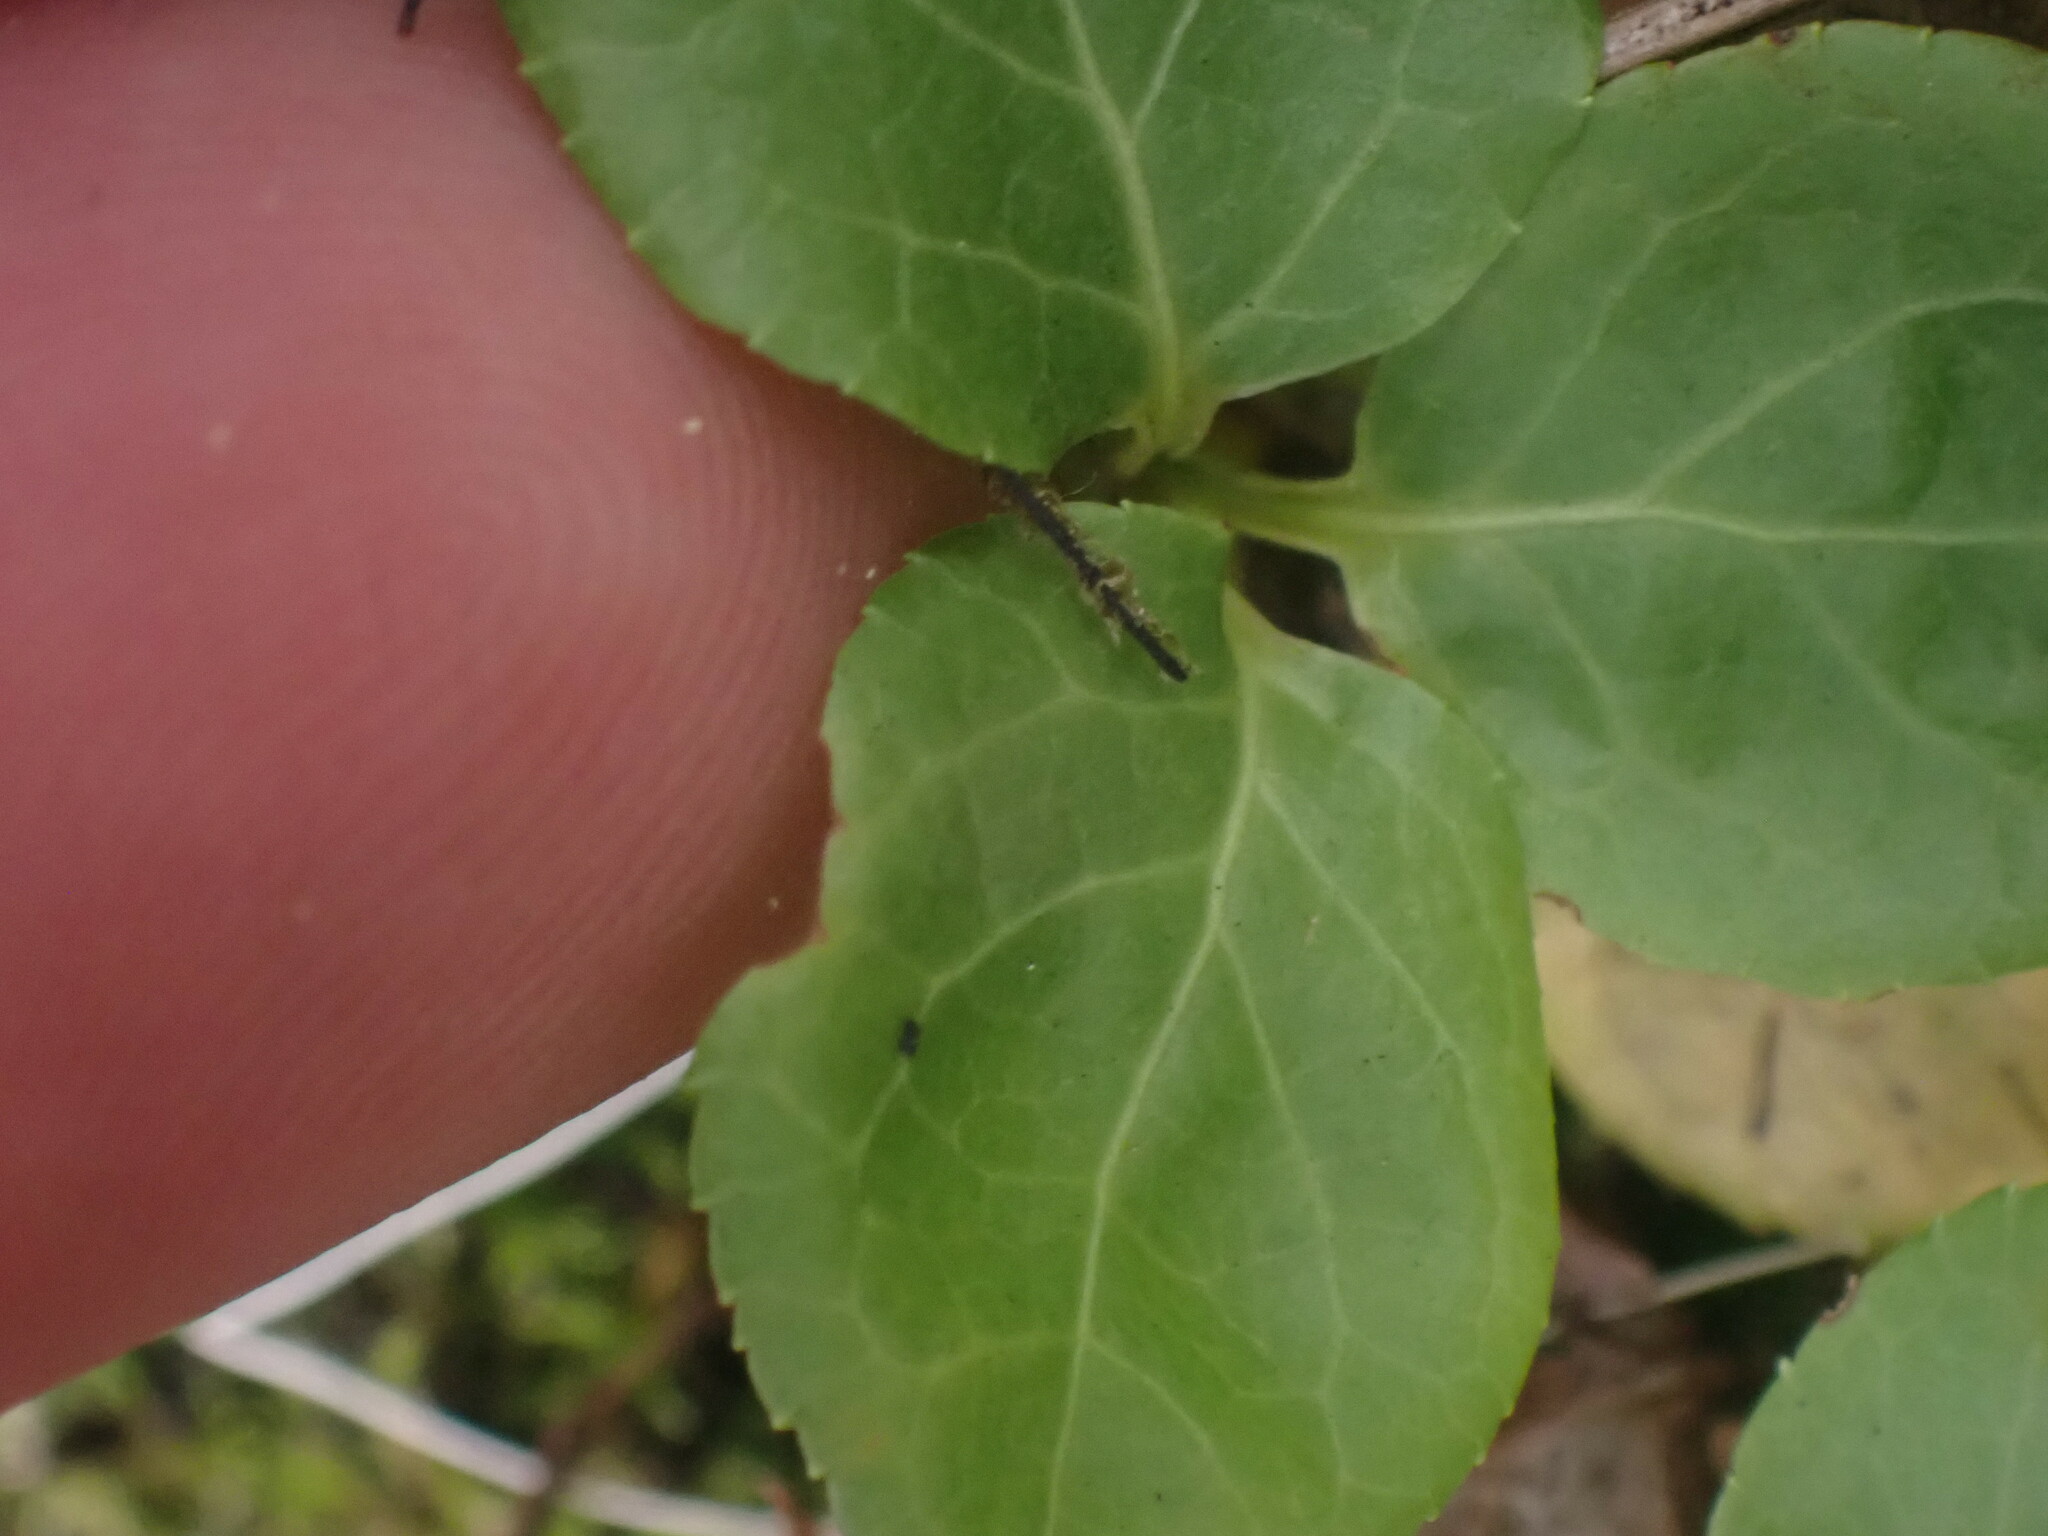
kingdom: Plantae
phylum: Tracheophyta
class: Magnoliopsida
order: Ericales
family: Ericaceae
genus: Orthilia
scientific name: Orthilia secunda
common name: One-sided orthilia
